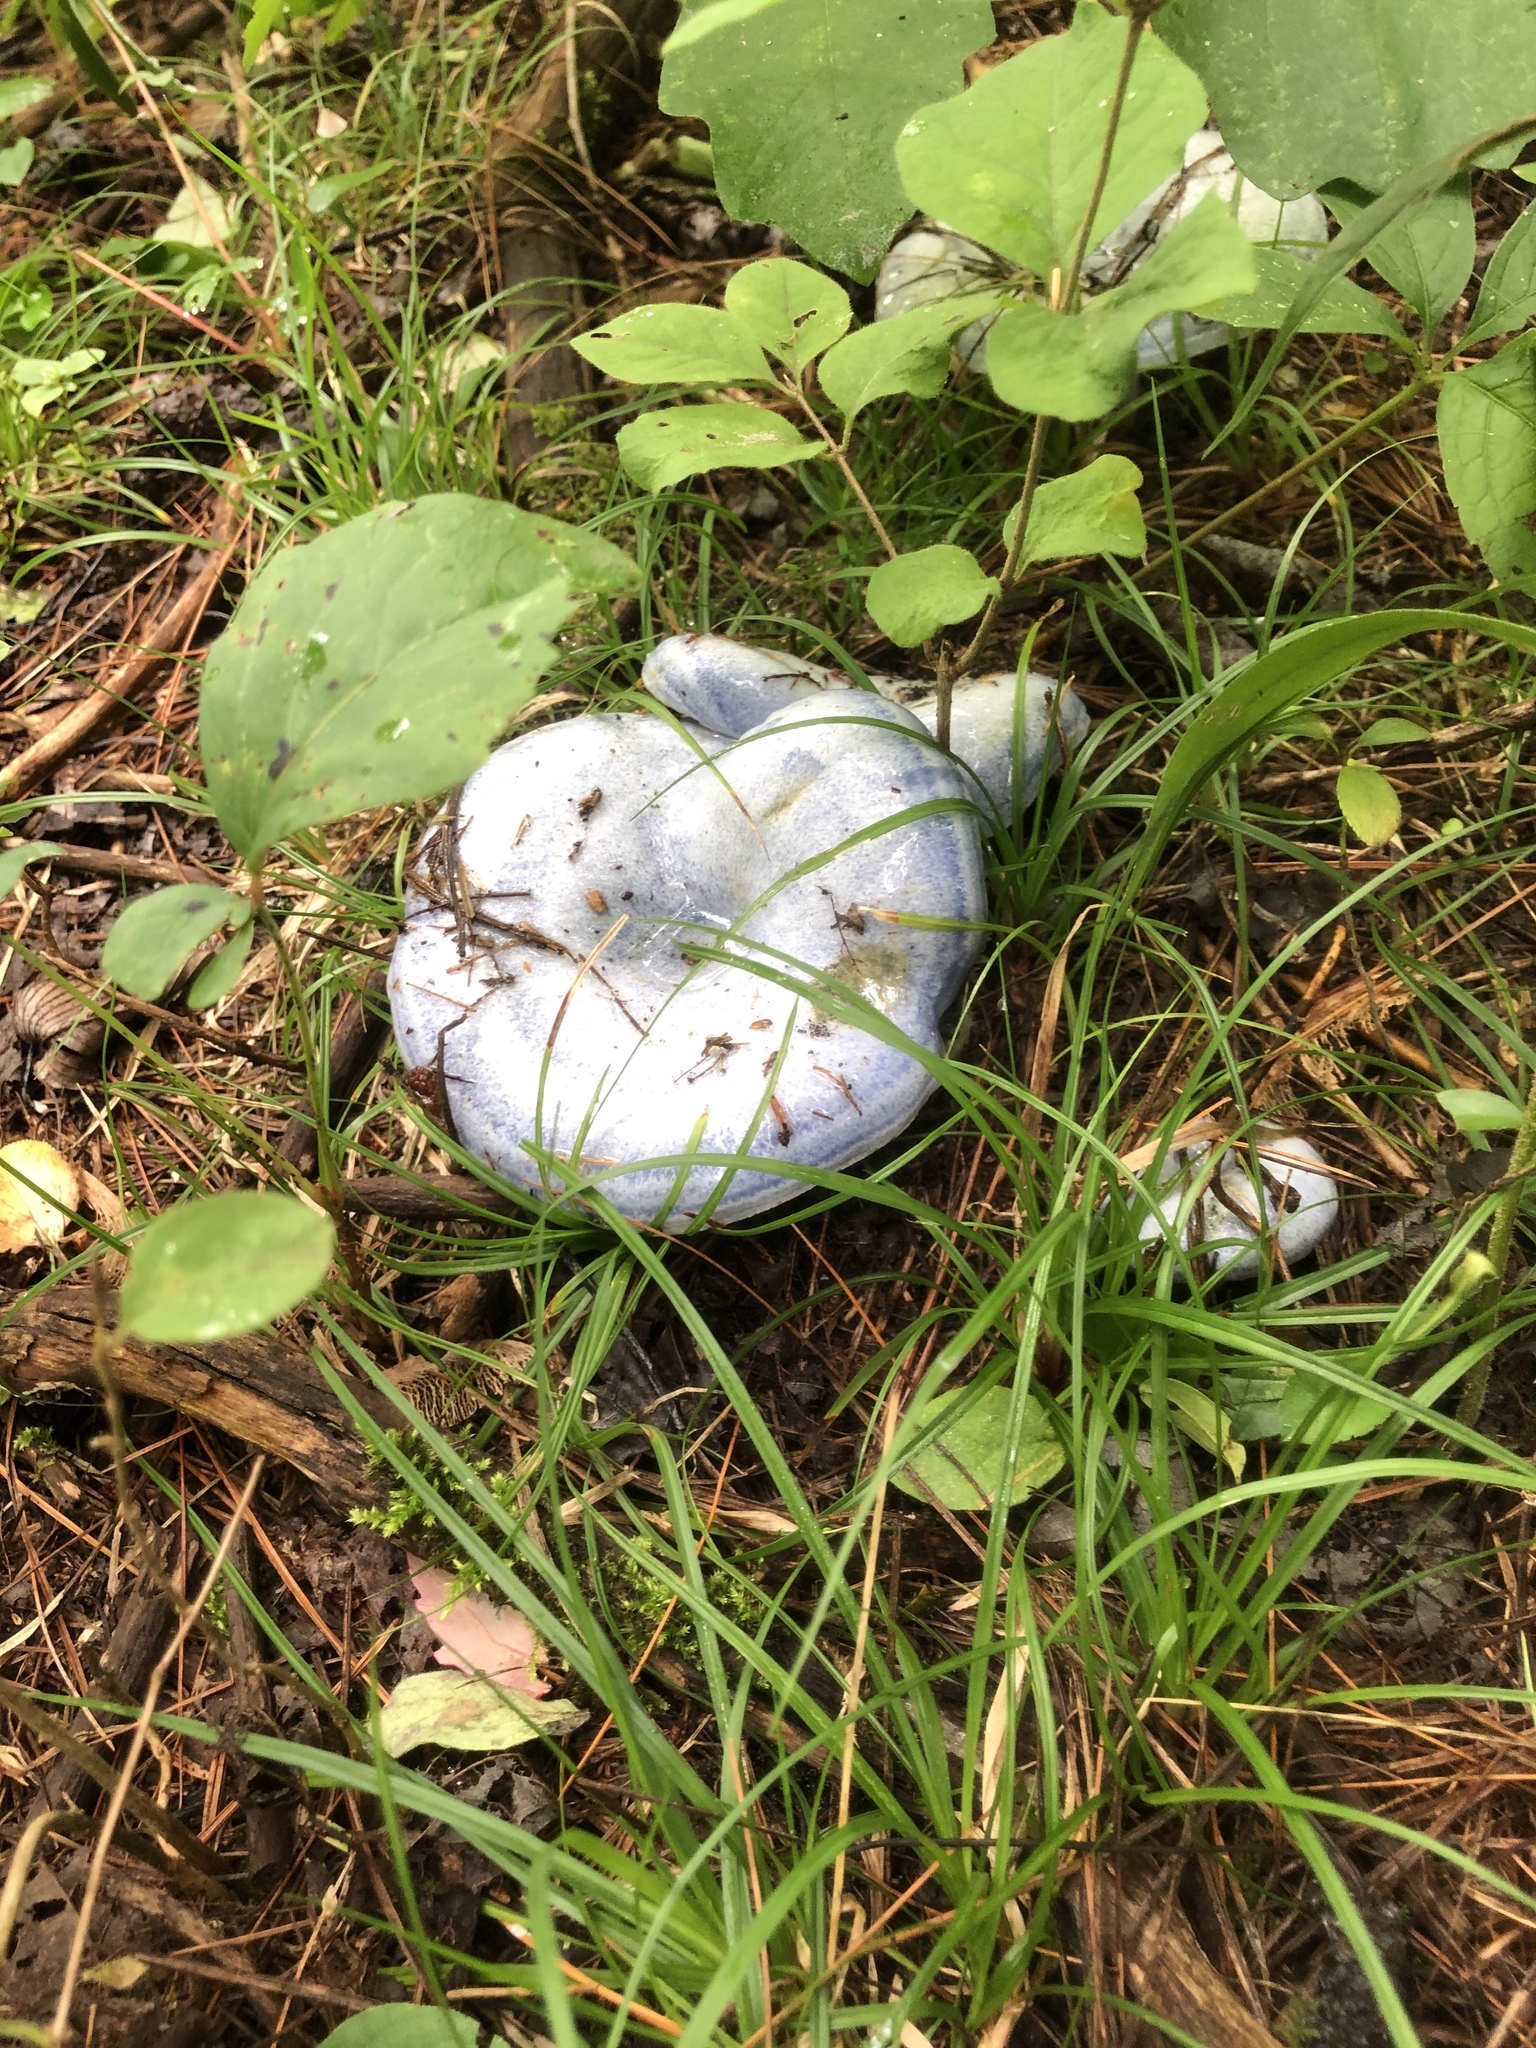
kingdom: Fungi
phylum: Basidiomycota
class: Agaricomycetes
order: Russulales
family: Russulaceae
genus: Lactarius
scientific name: Lactarius indigo
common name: Indigo milk cap
